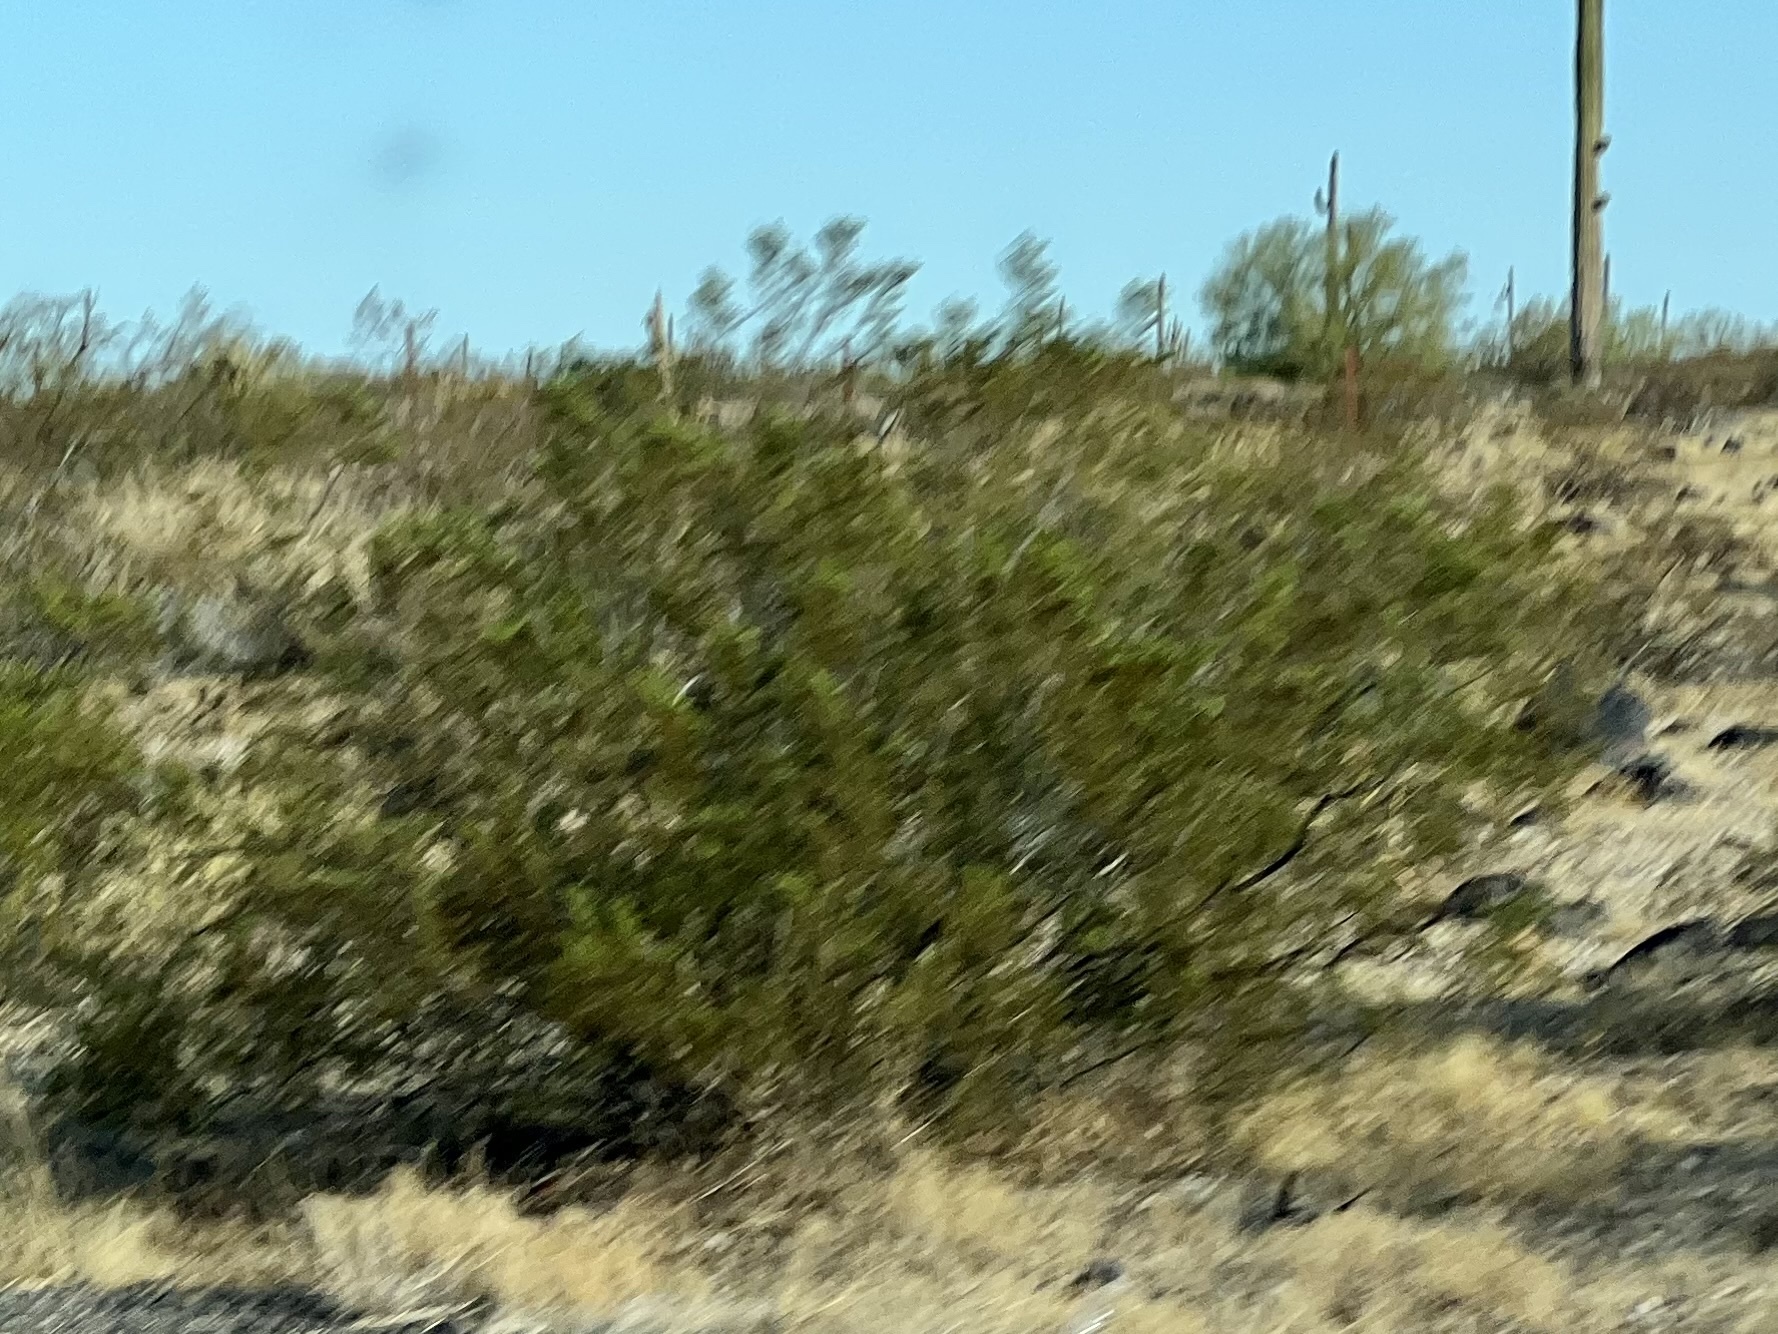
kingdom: Plantae
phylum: Tracheophyta
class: Magnoliopsida
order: Zygophyllales
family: Zygophyllaceae
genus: Larrea
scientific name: Larrea tridentata
